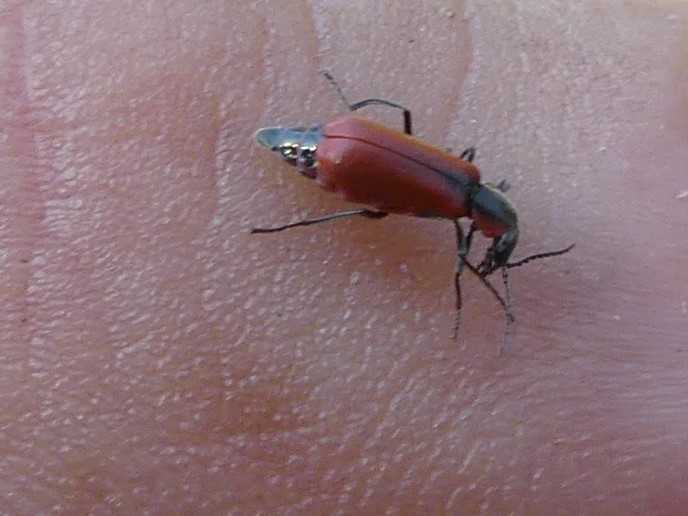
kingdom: Animalia
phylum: Arthropoda
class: Insecta
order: Coleoptera
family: Melyridae
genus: Anthocomus
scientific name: Anthocomus rufus
